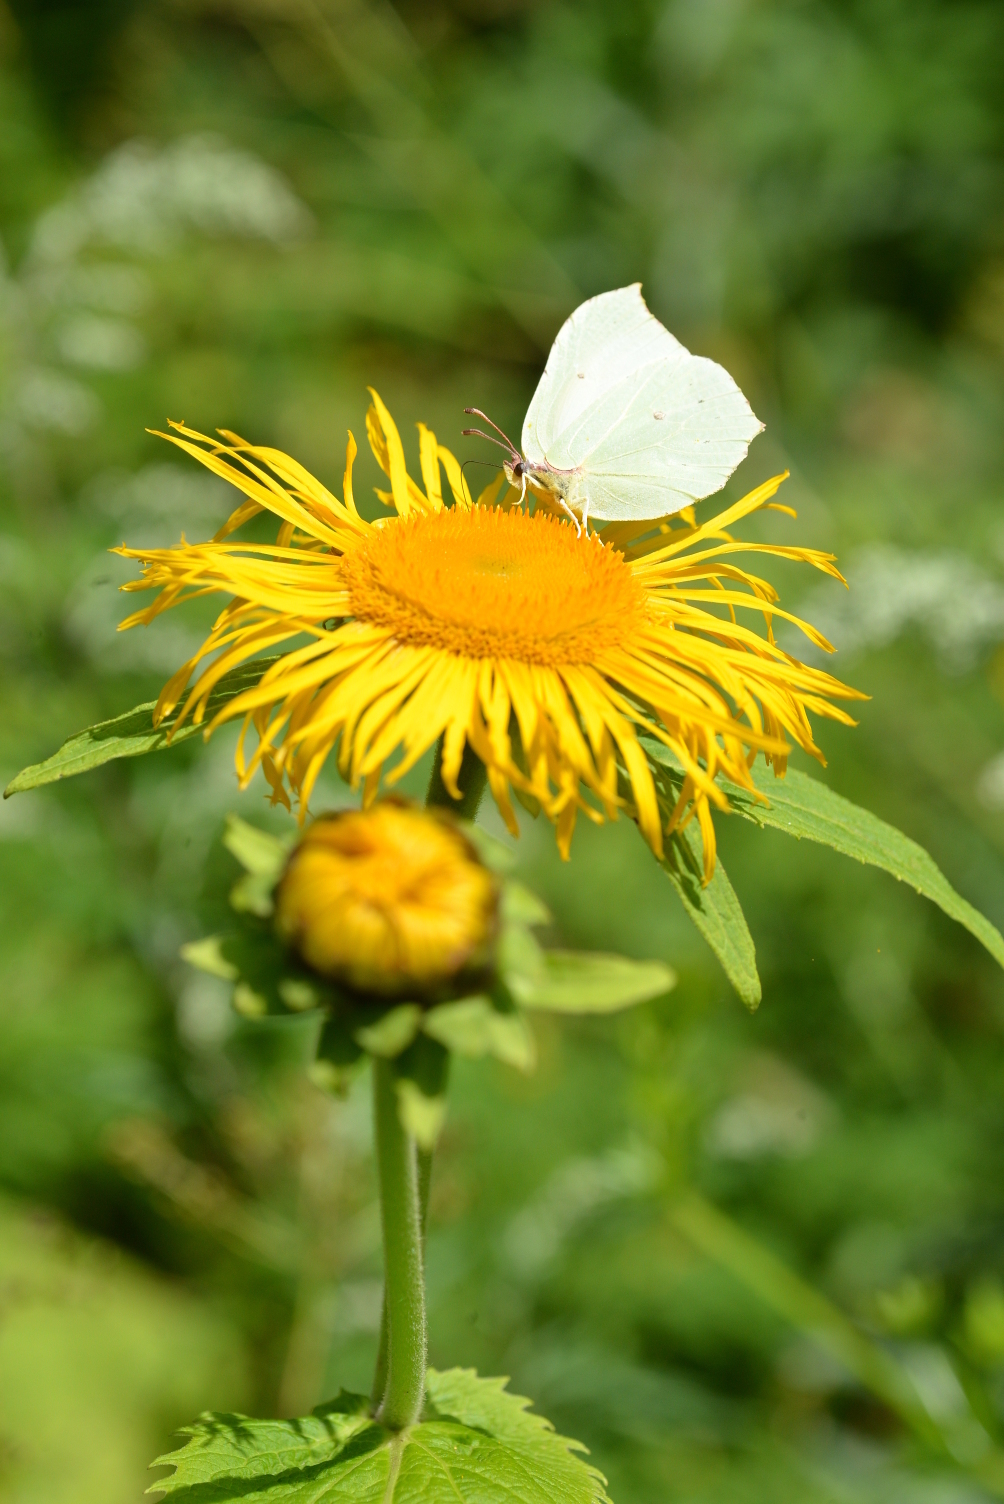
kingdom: Animalia
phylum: Arthropoda
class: Insecta
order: Lepidoptera
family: Pieridae
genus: Gonepteryx
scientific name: Gonepteryx rhamni
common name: Brimstone
